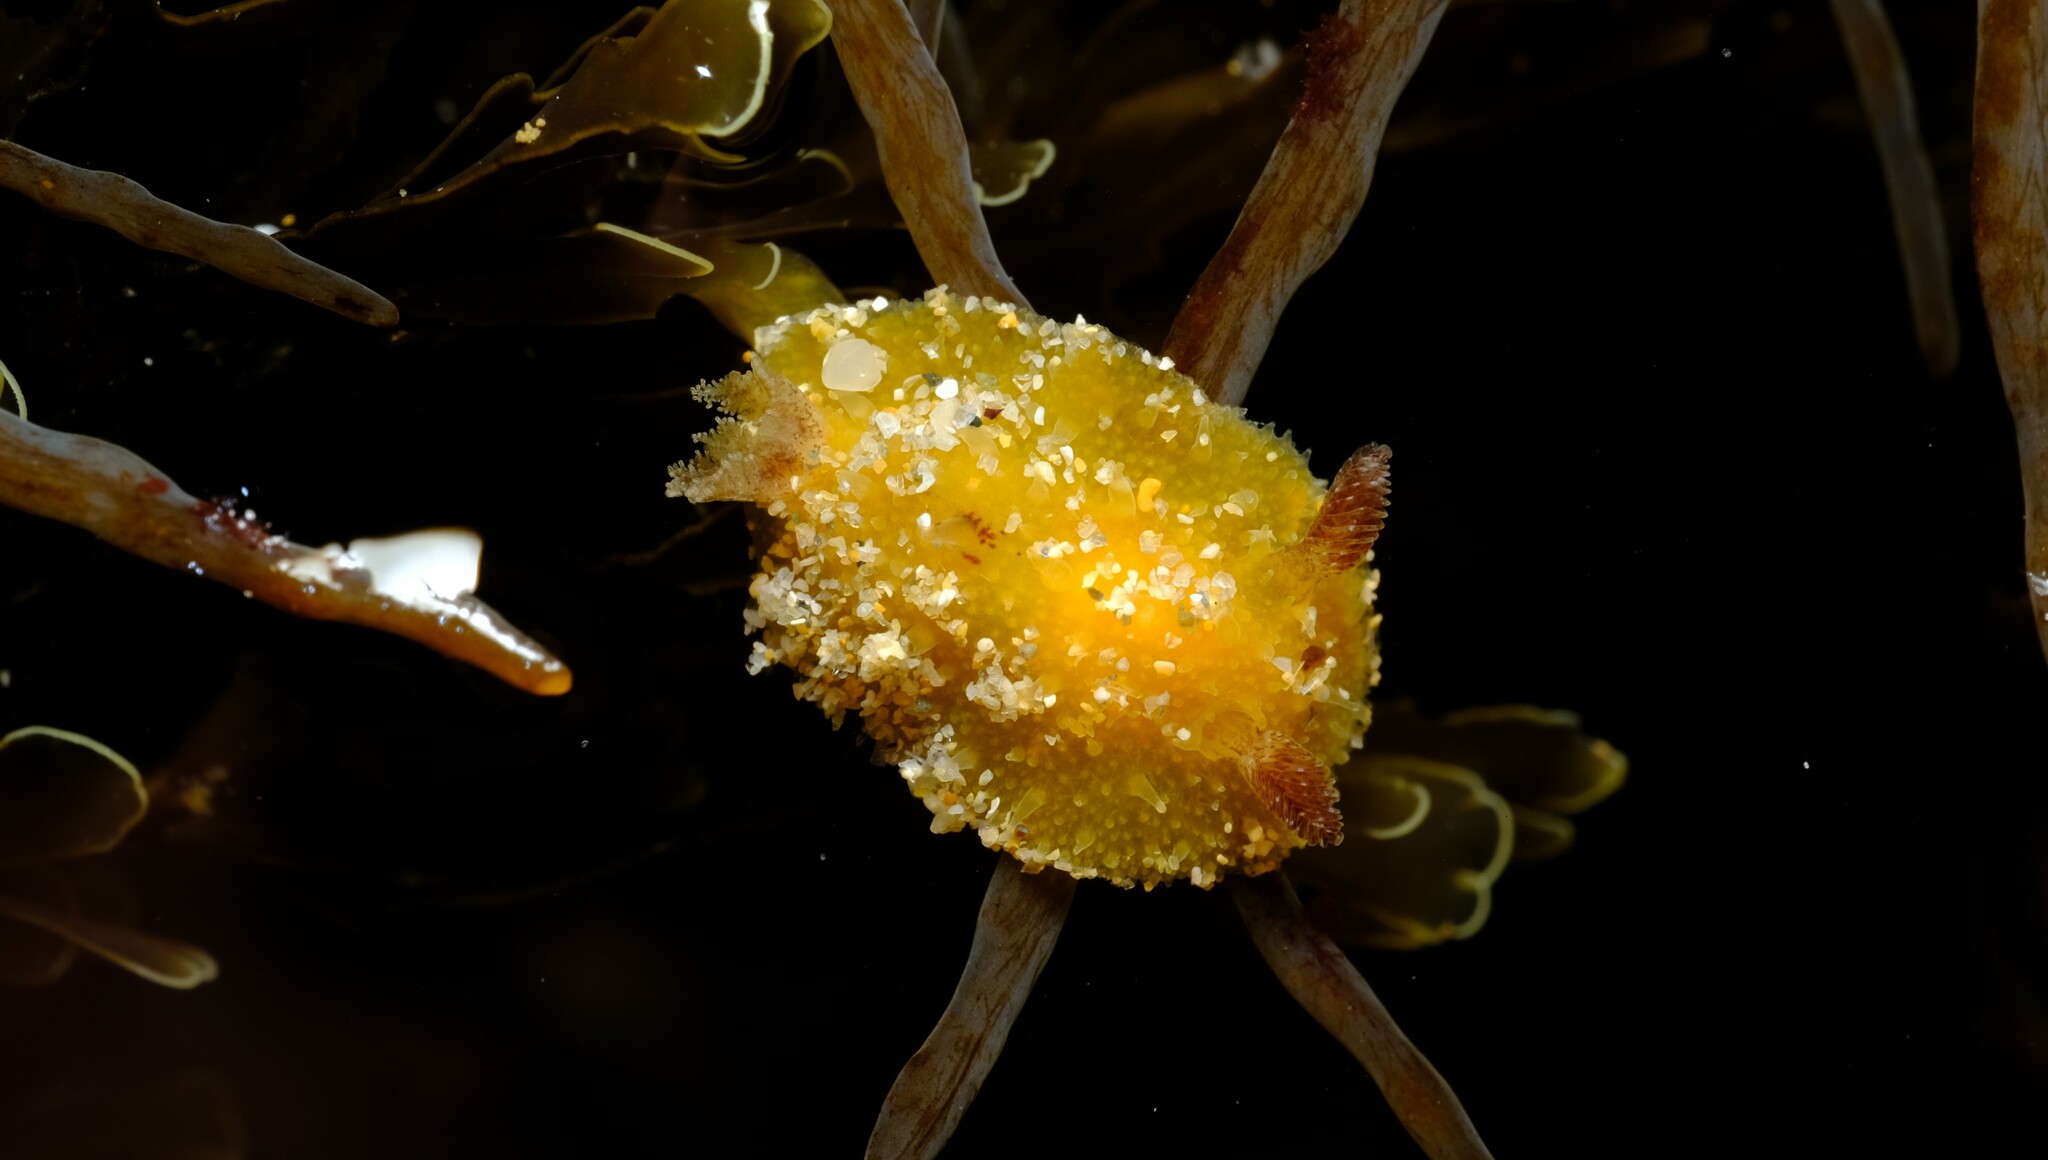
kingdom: Animalia
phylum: Mollusca
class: Gastropoda
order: Nudibranchia
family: Discodorididae
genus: Thordisa
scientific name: Thordisa verrucosa
